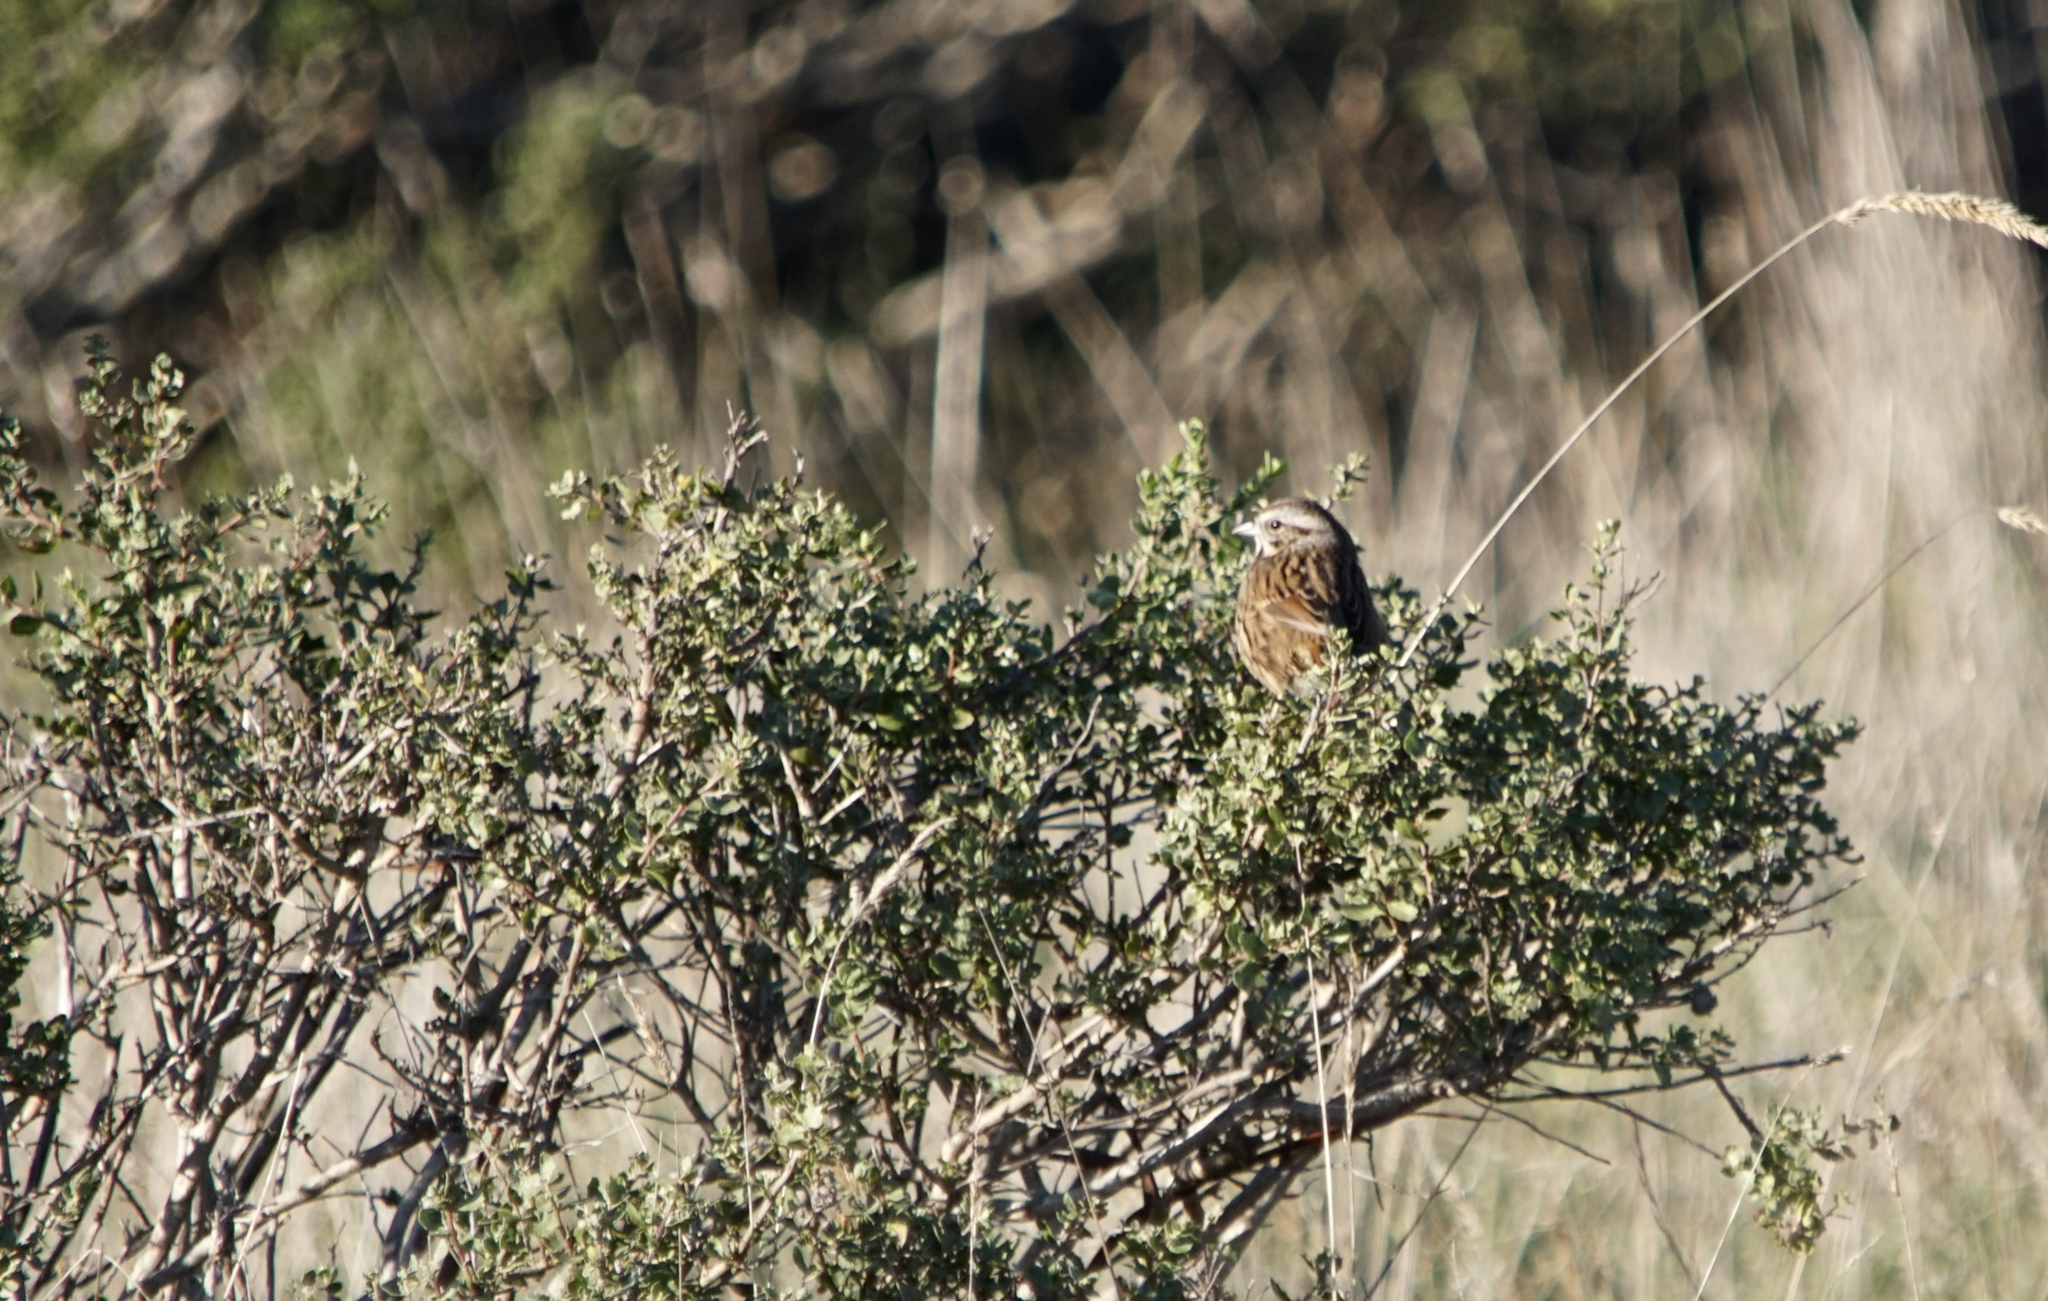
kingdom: Animalia
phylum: Chordata
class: Aves
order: Passeriformes
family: Passerellidae
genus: Melospiza
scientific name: Melospiza melodia
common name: Song sparrow
